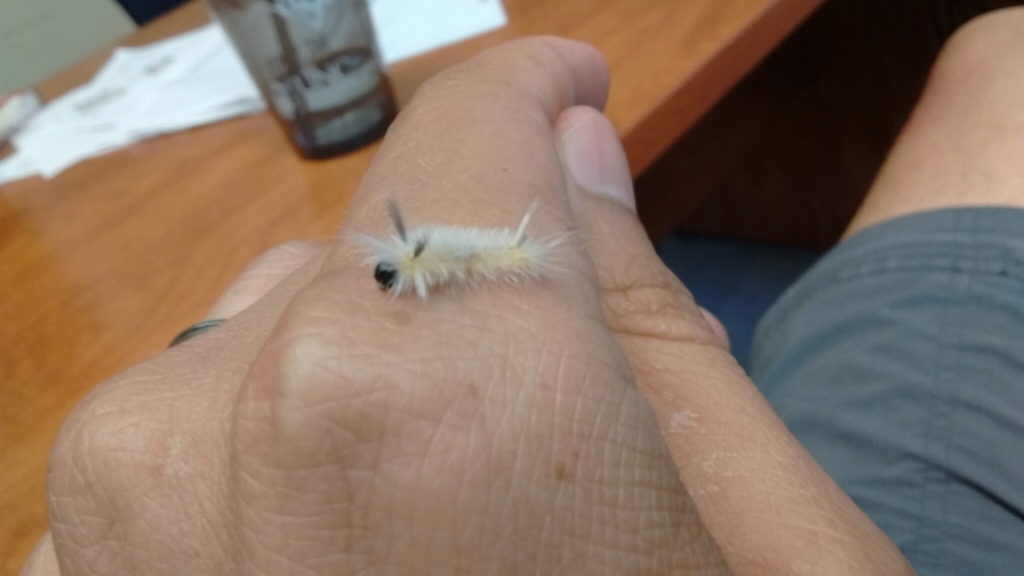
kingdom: Animalia
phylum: Arthropoda
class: Insecta
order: Lepidoptera
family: Erebidae
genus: Halysidota
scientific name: Halysidota tessellaris
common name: Banded tussock moth
